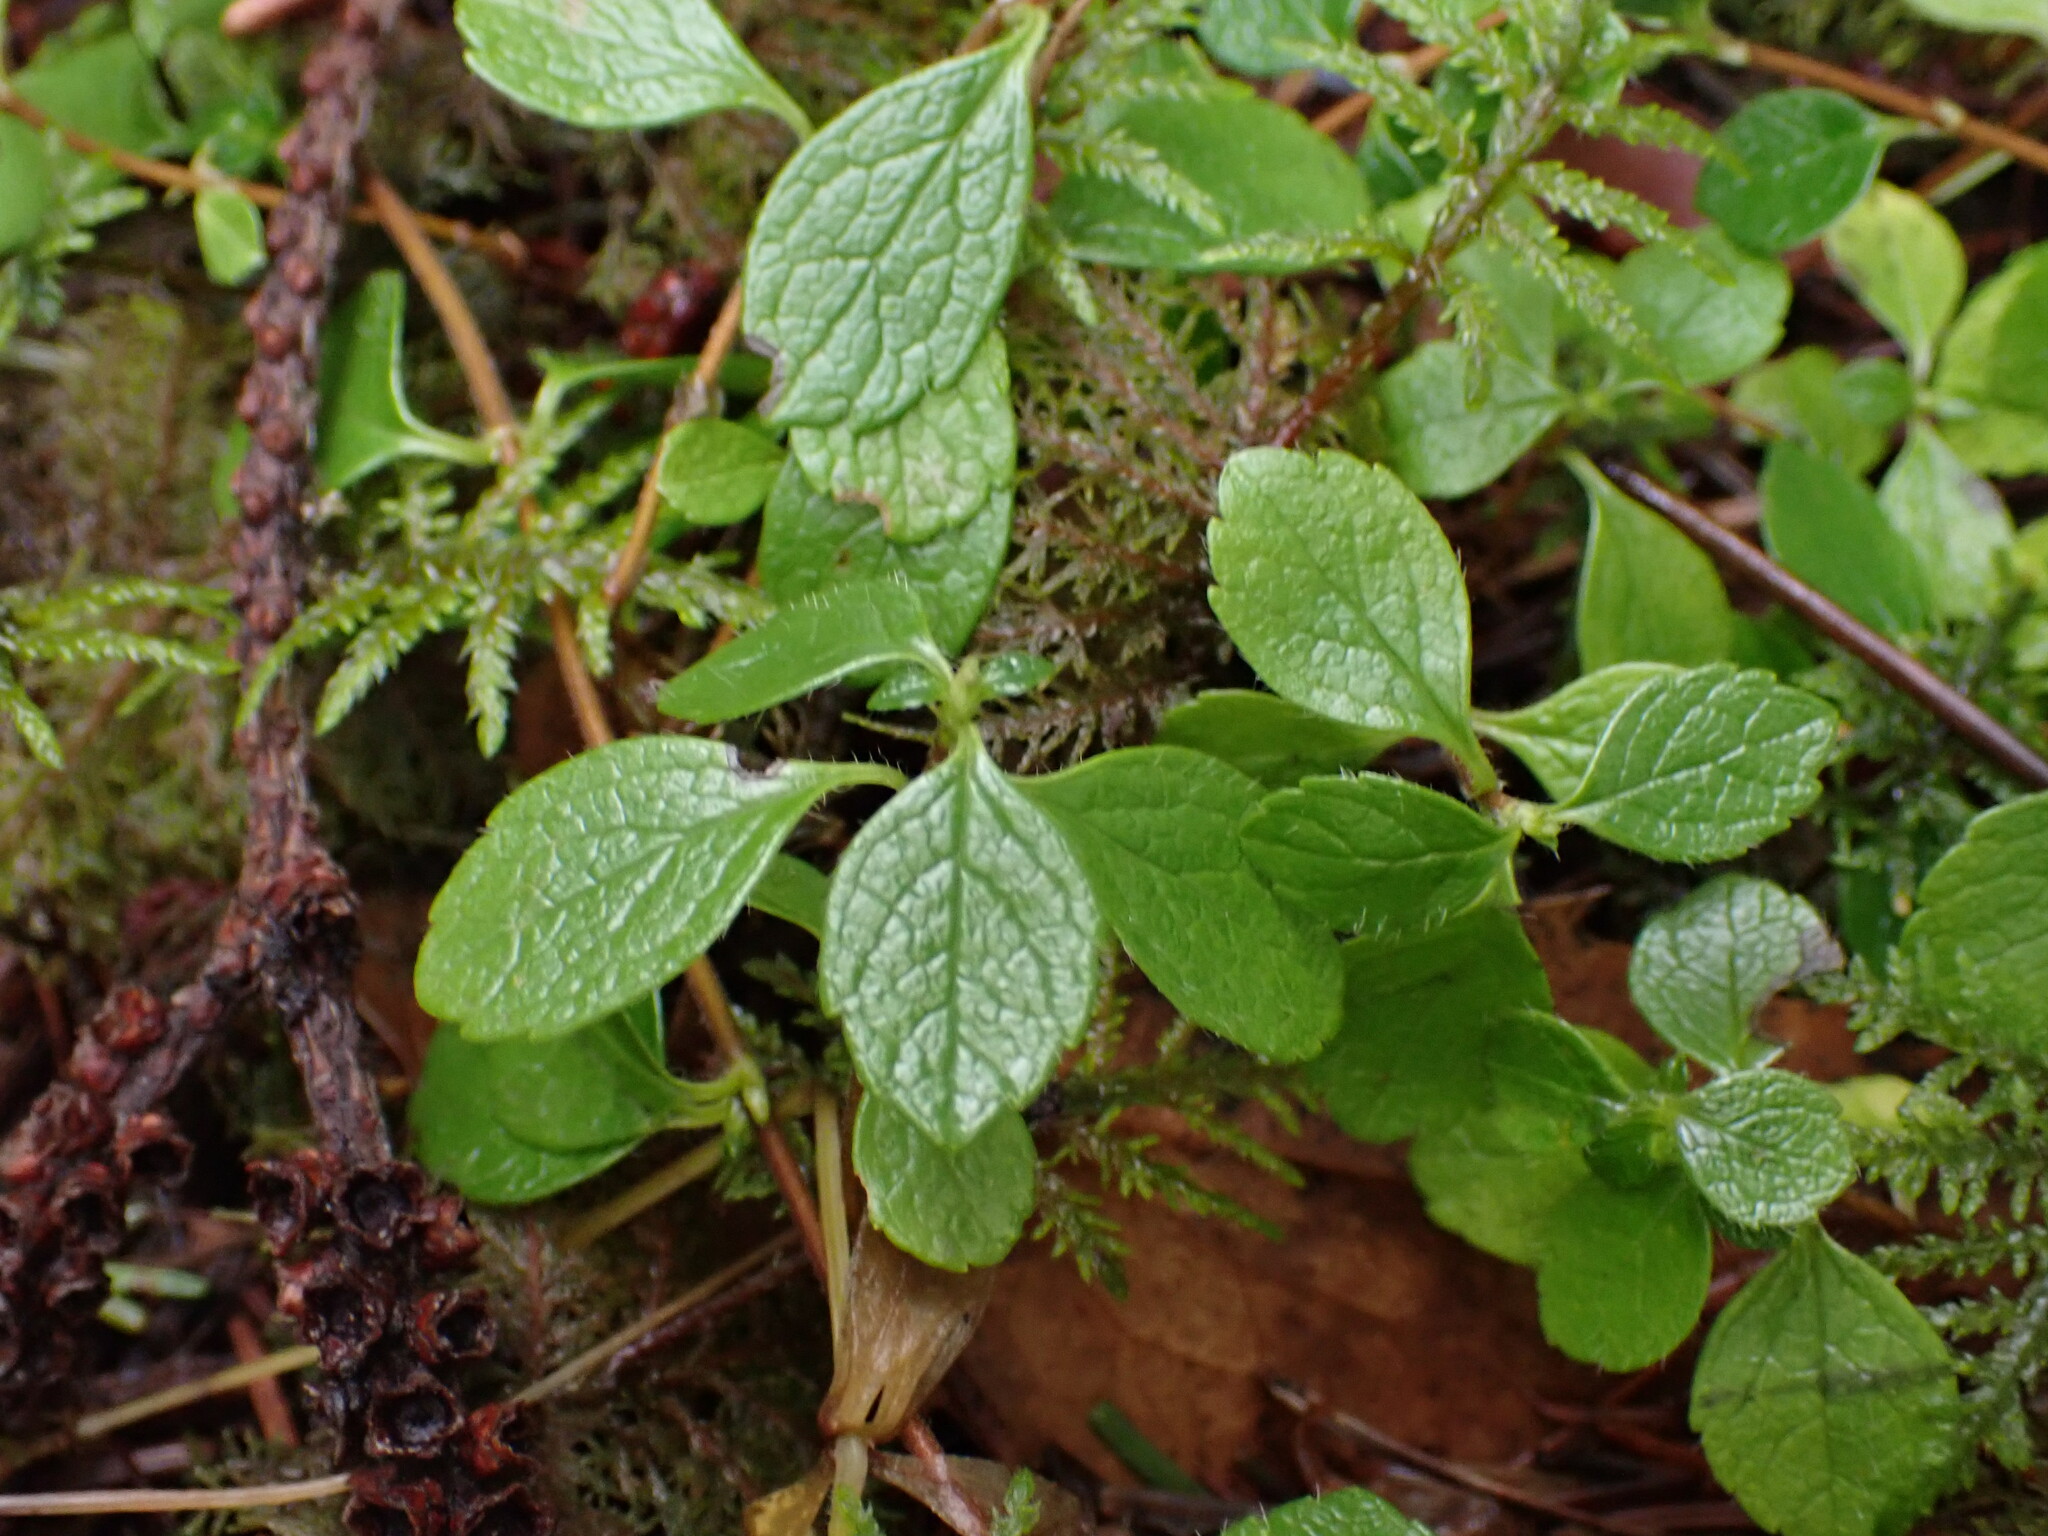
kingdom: Plantae
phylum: Tracheophyta
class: Magnoliopsida
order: Dipsacales
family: Caprifoliaceae
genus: Linnaea
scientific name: Linnaea borealis
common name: Twinflower
